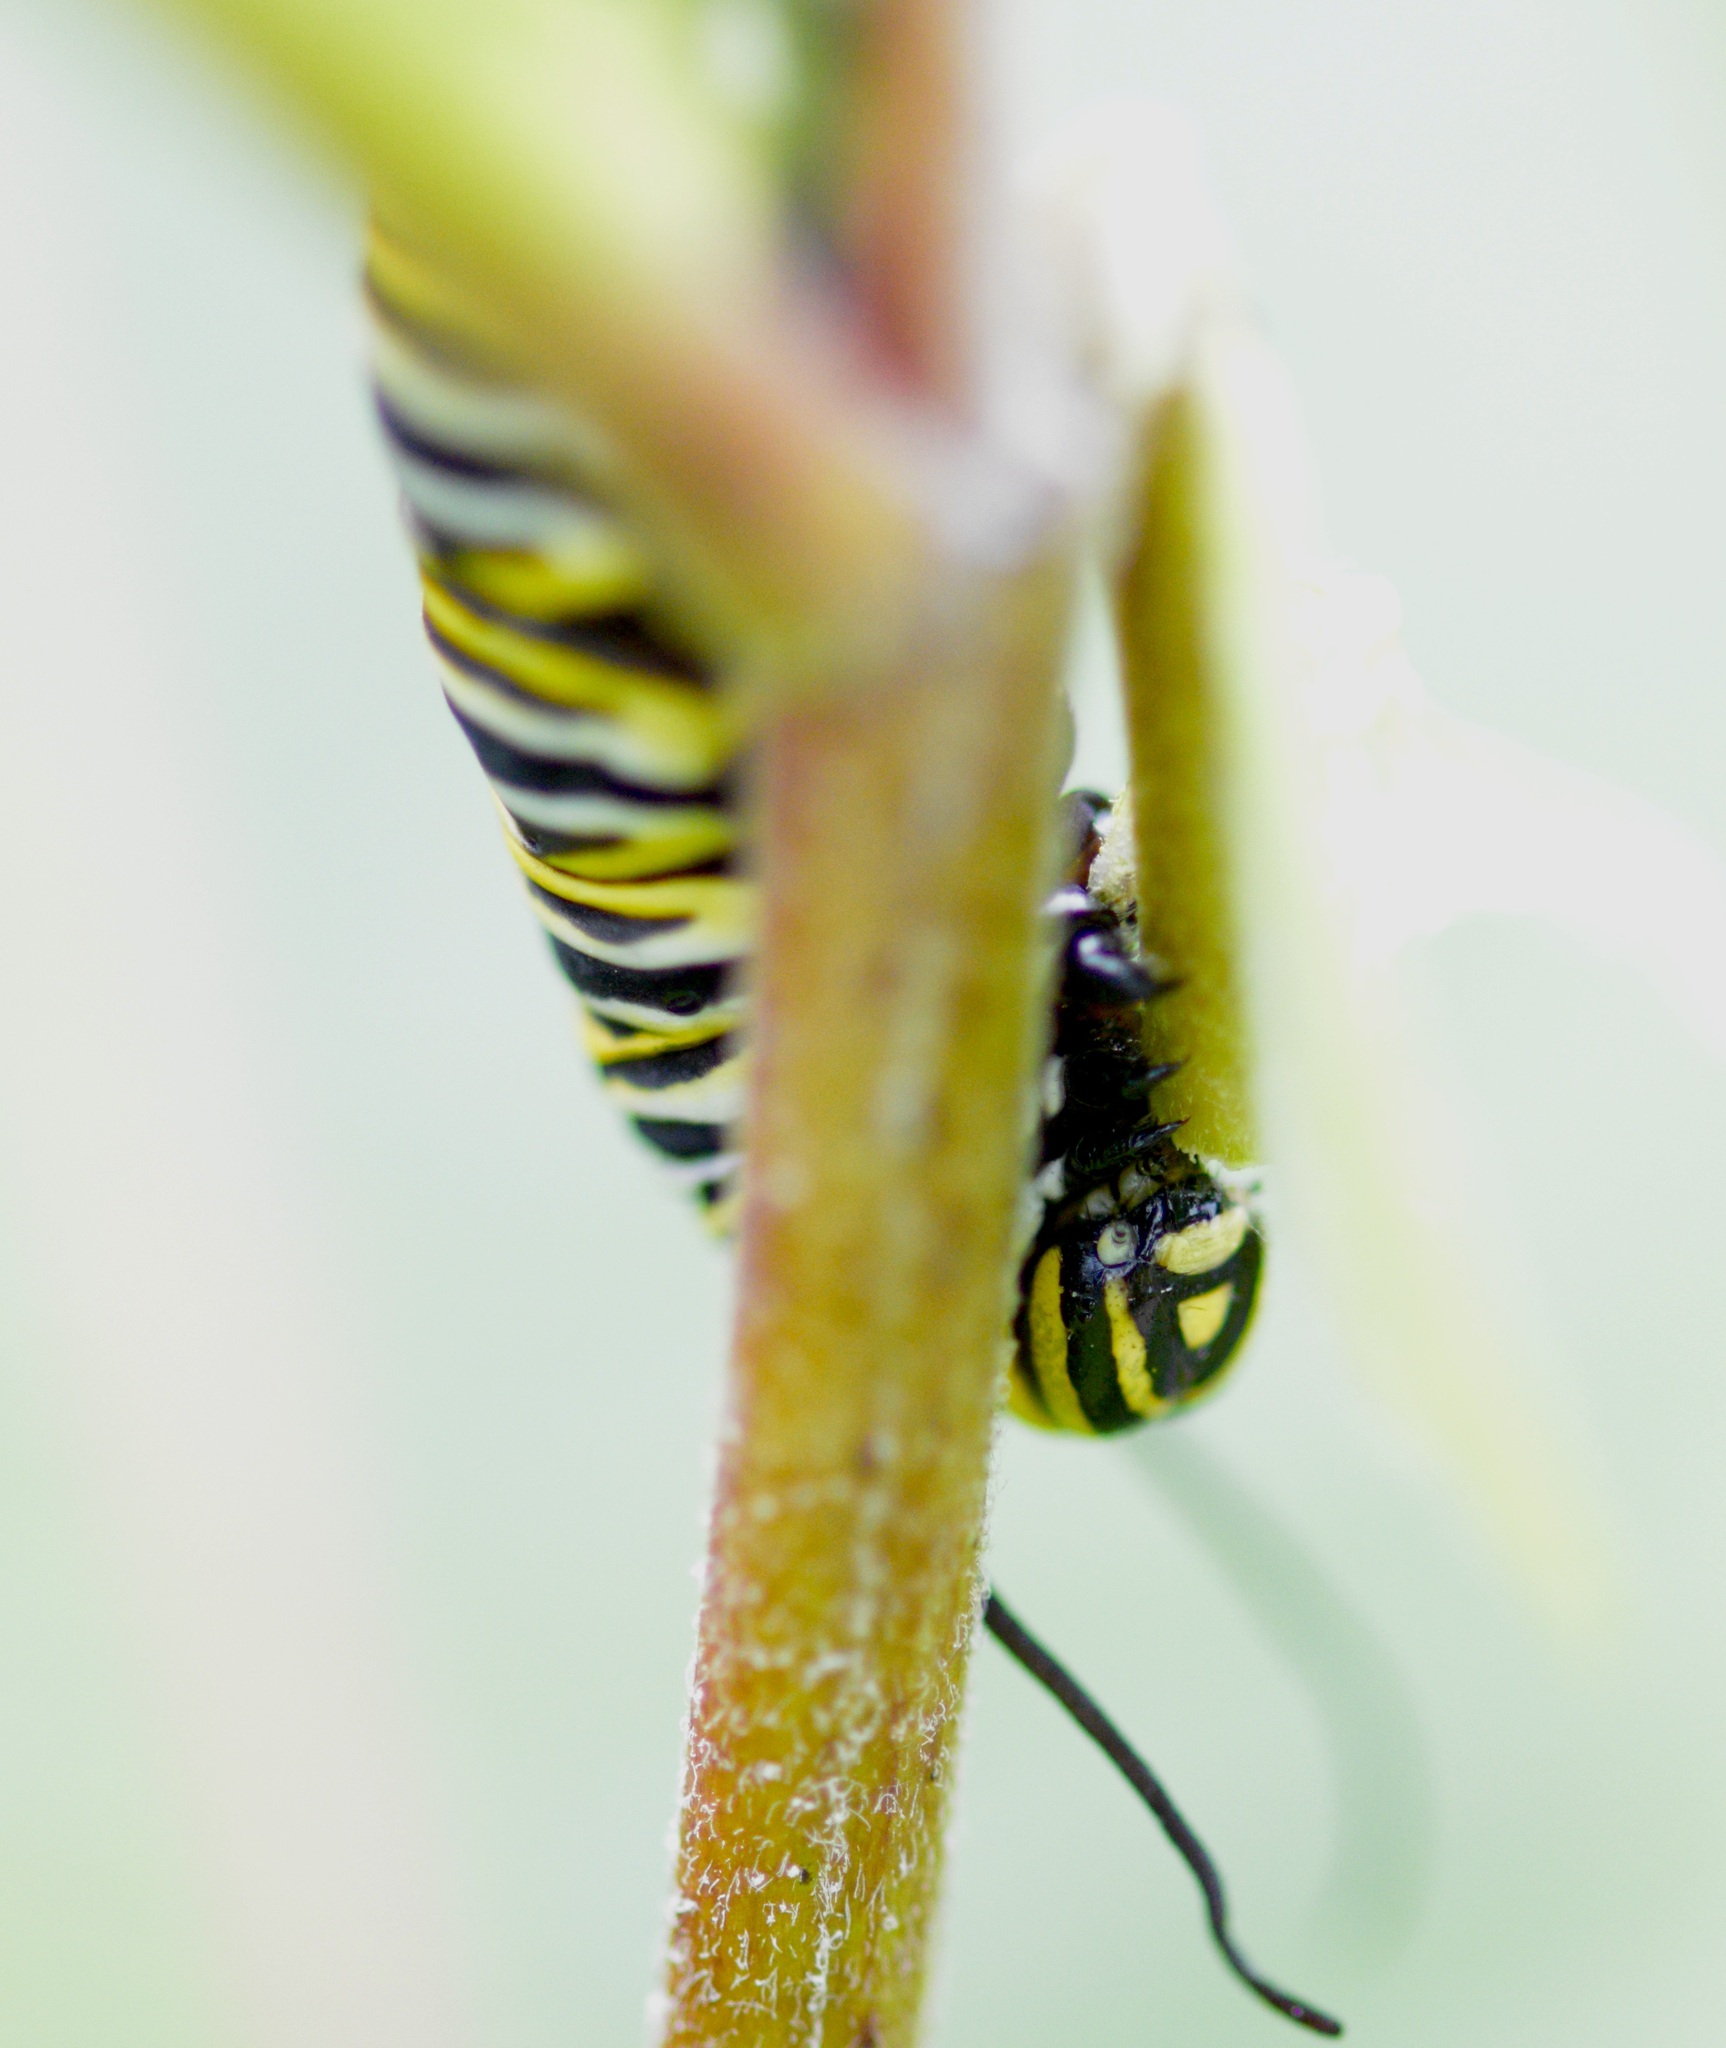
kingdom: Animalia
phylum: Arthropoda
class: Insecta
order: Lepidoptera
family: Nymphalidae
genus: Danaus
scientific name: Danaus plexippus
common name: Monarch
